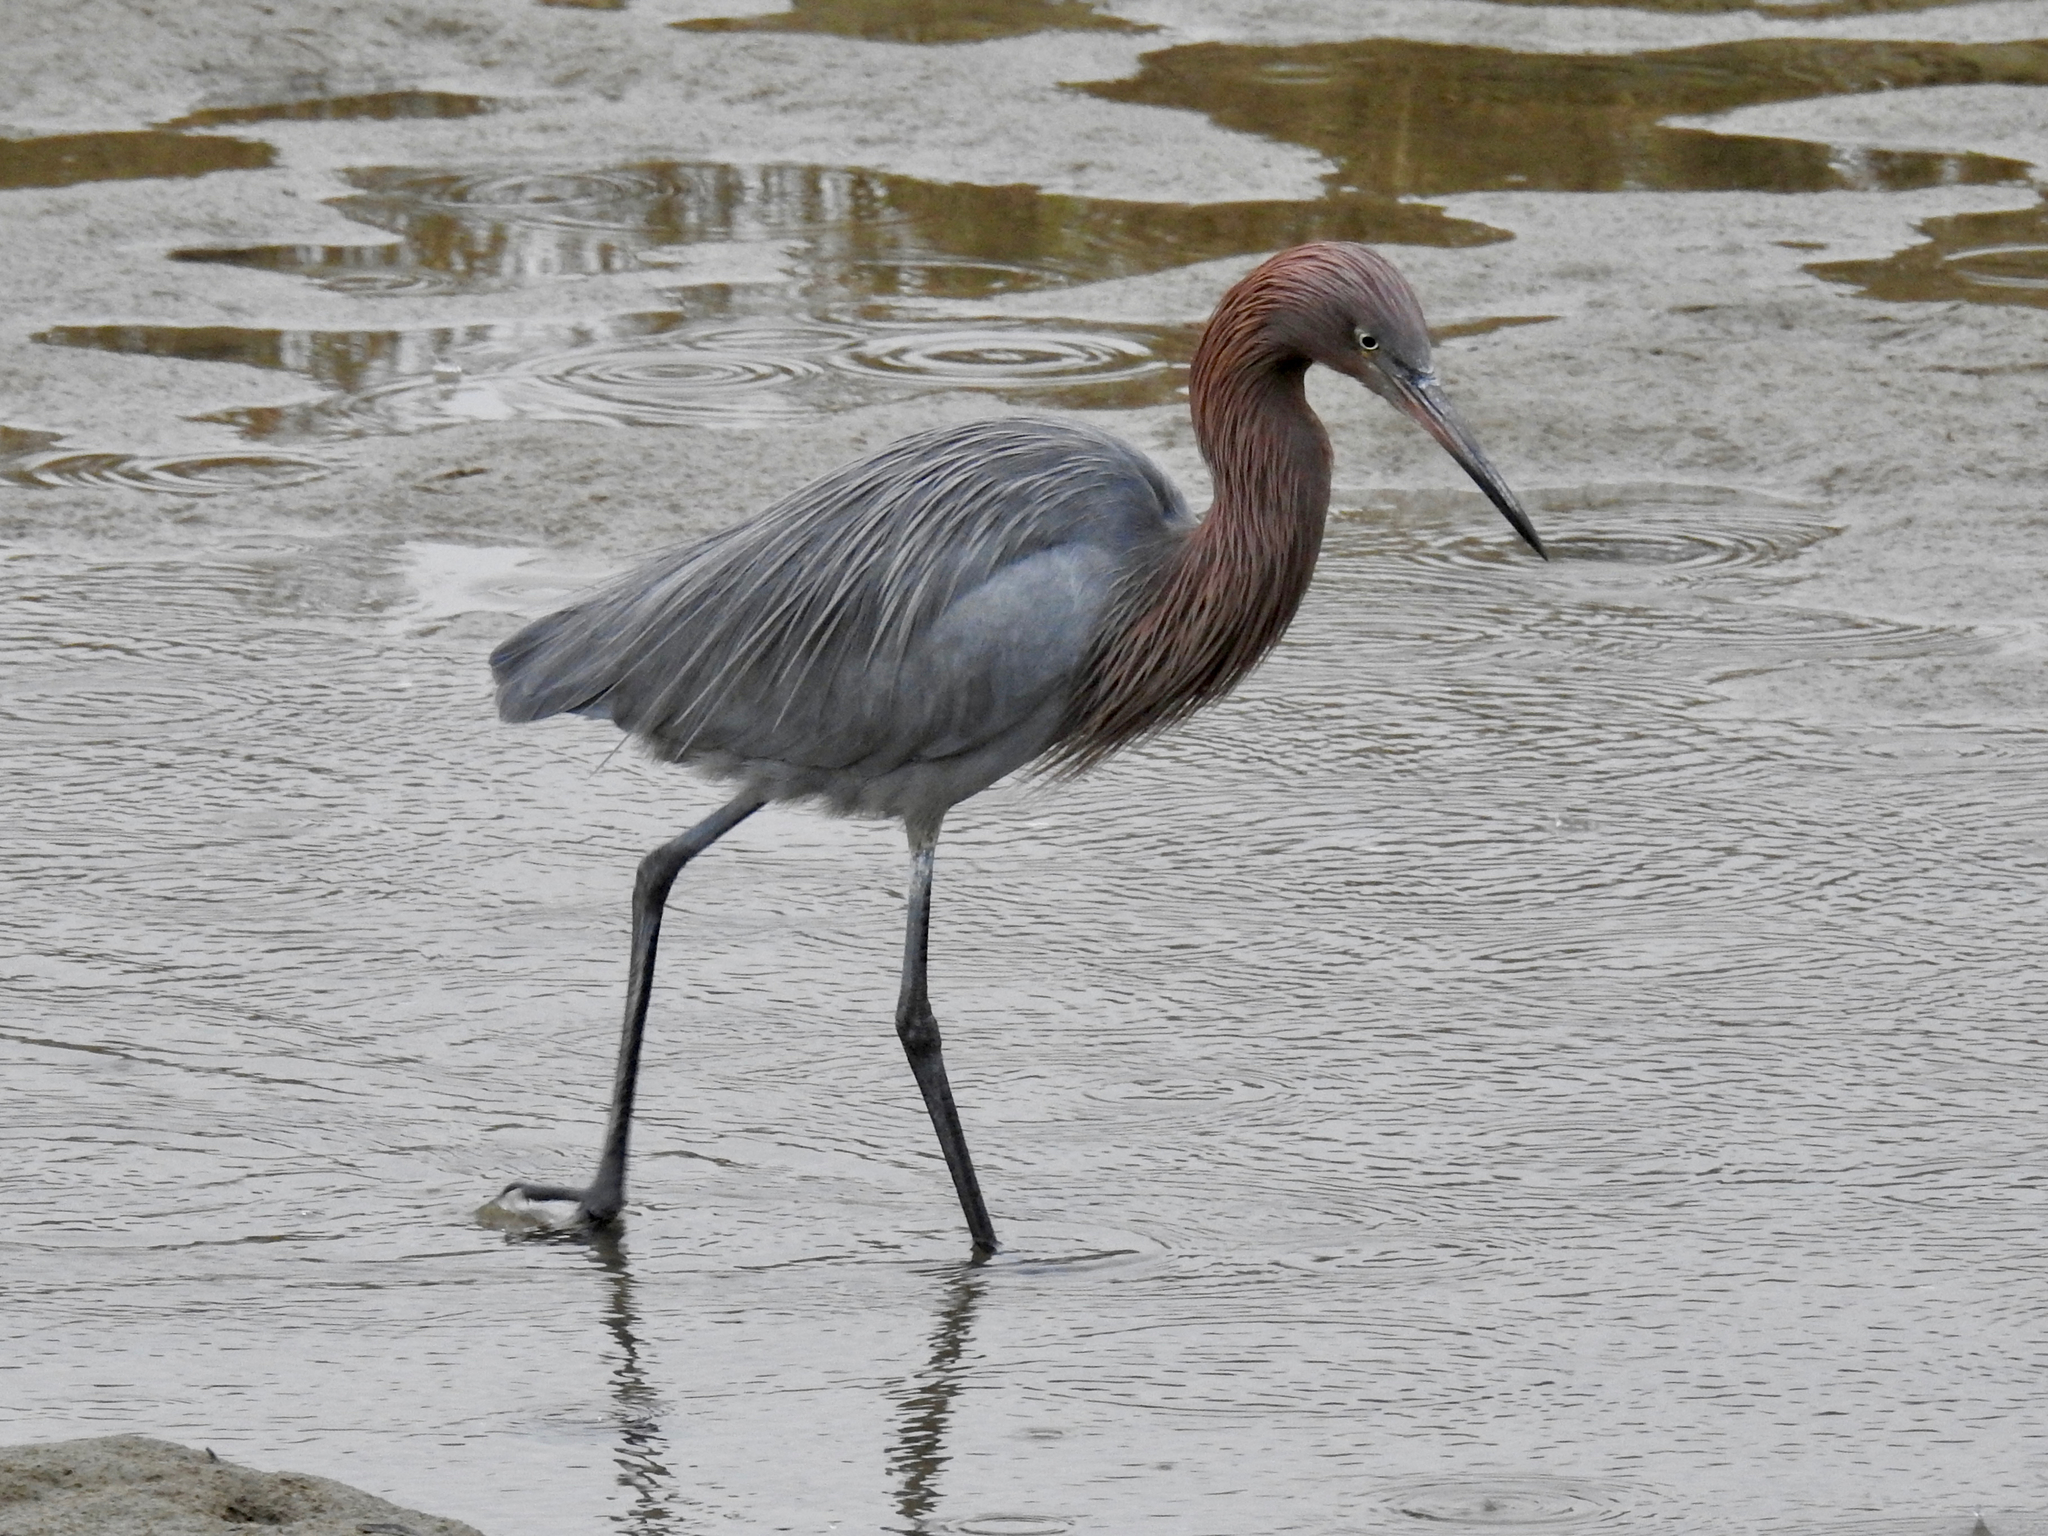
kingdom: Animalia
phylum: Chordata
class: Aves
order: Pelecaniformes
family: Ardeidae
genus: Egretta
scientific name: Egretta rufescens
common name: Reddish egret
